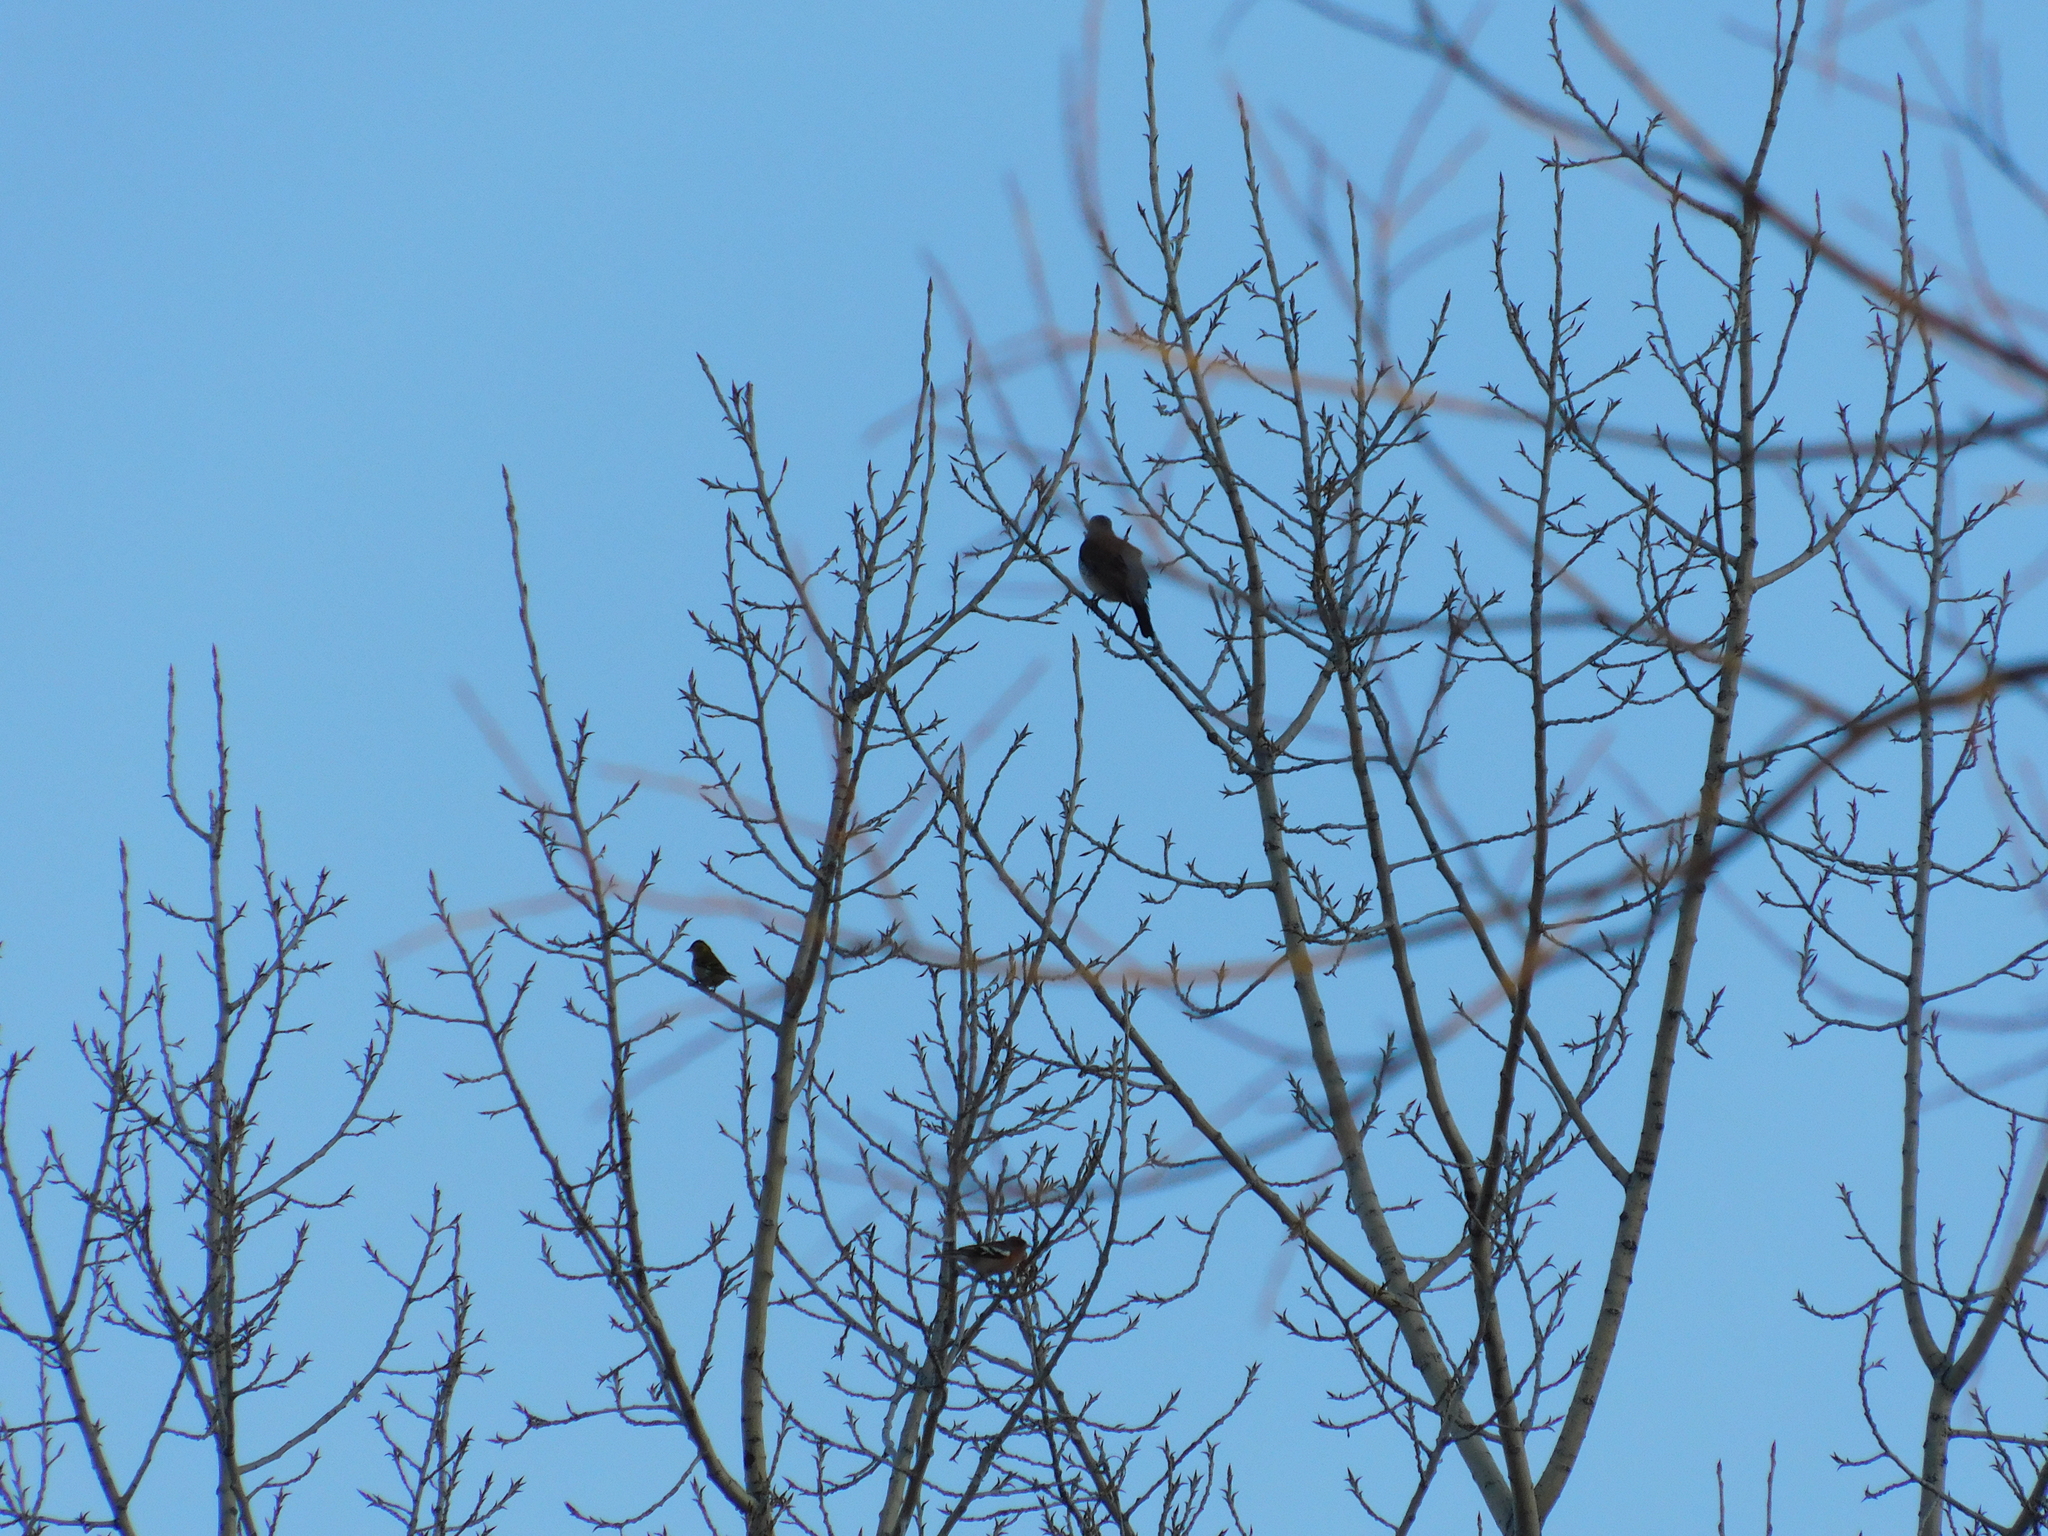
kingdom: Animalia
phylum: Chordata
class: Aves
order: Passeriformes
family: Fringillidae
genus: Fringilla
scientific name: Fringilla coelebs
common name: Common chaffinch
